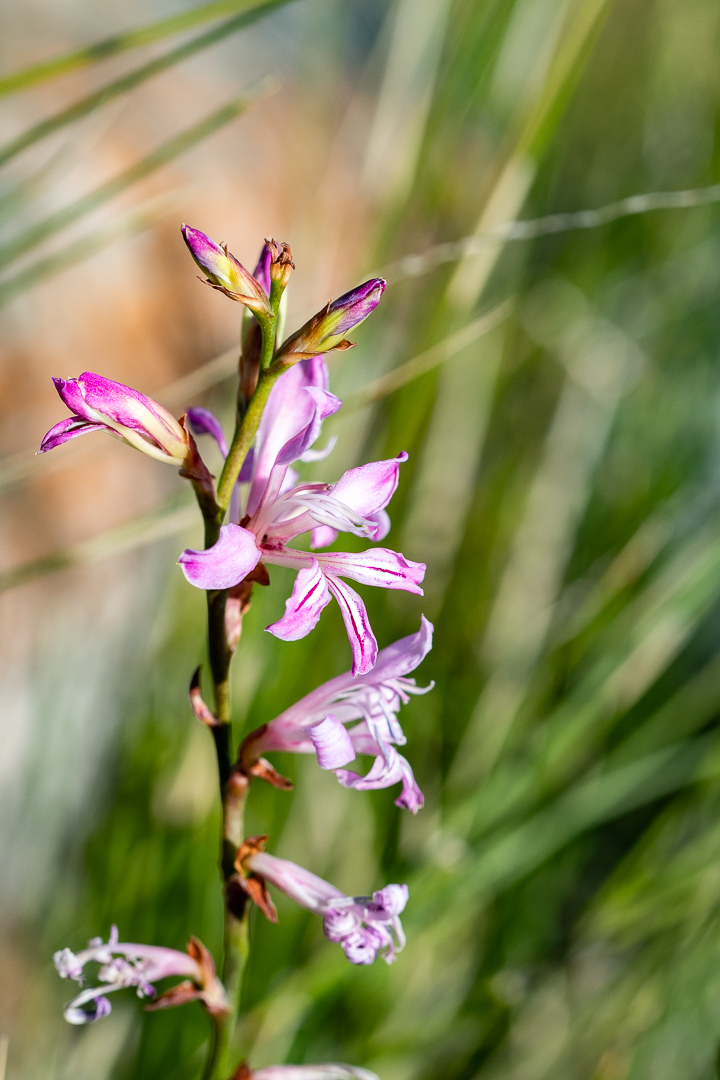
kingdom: Plantae
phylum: Tracheophyta
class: Liliopsida
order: Asparagales
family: Iridaceae
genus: Tritoniopsis
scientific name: Tritoniopsis lata
